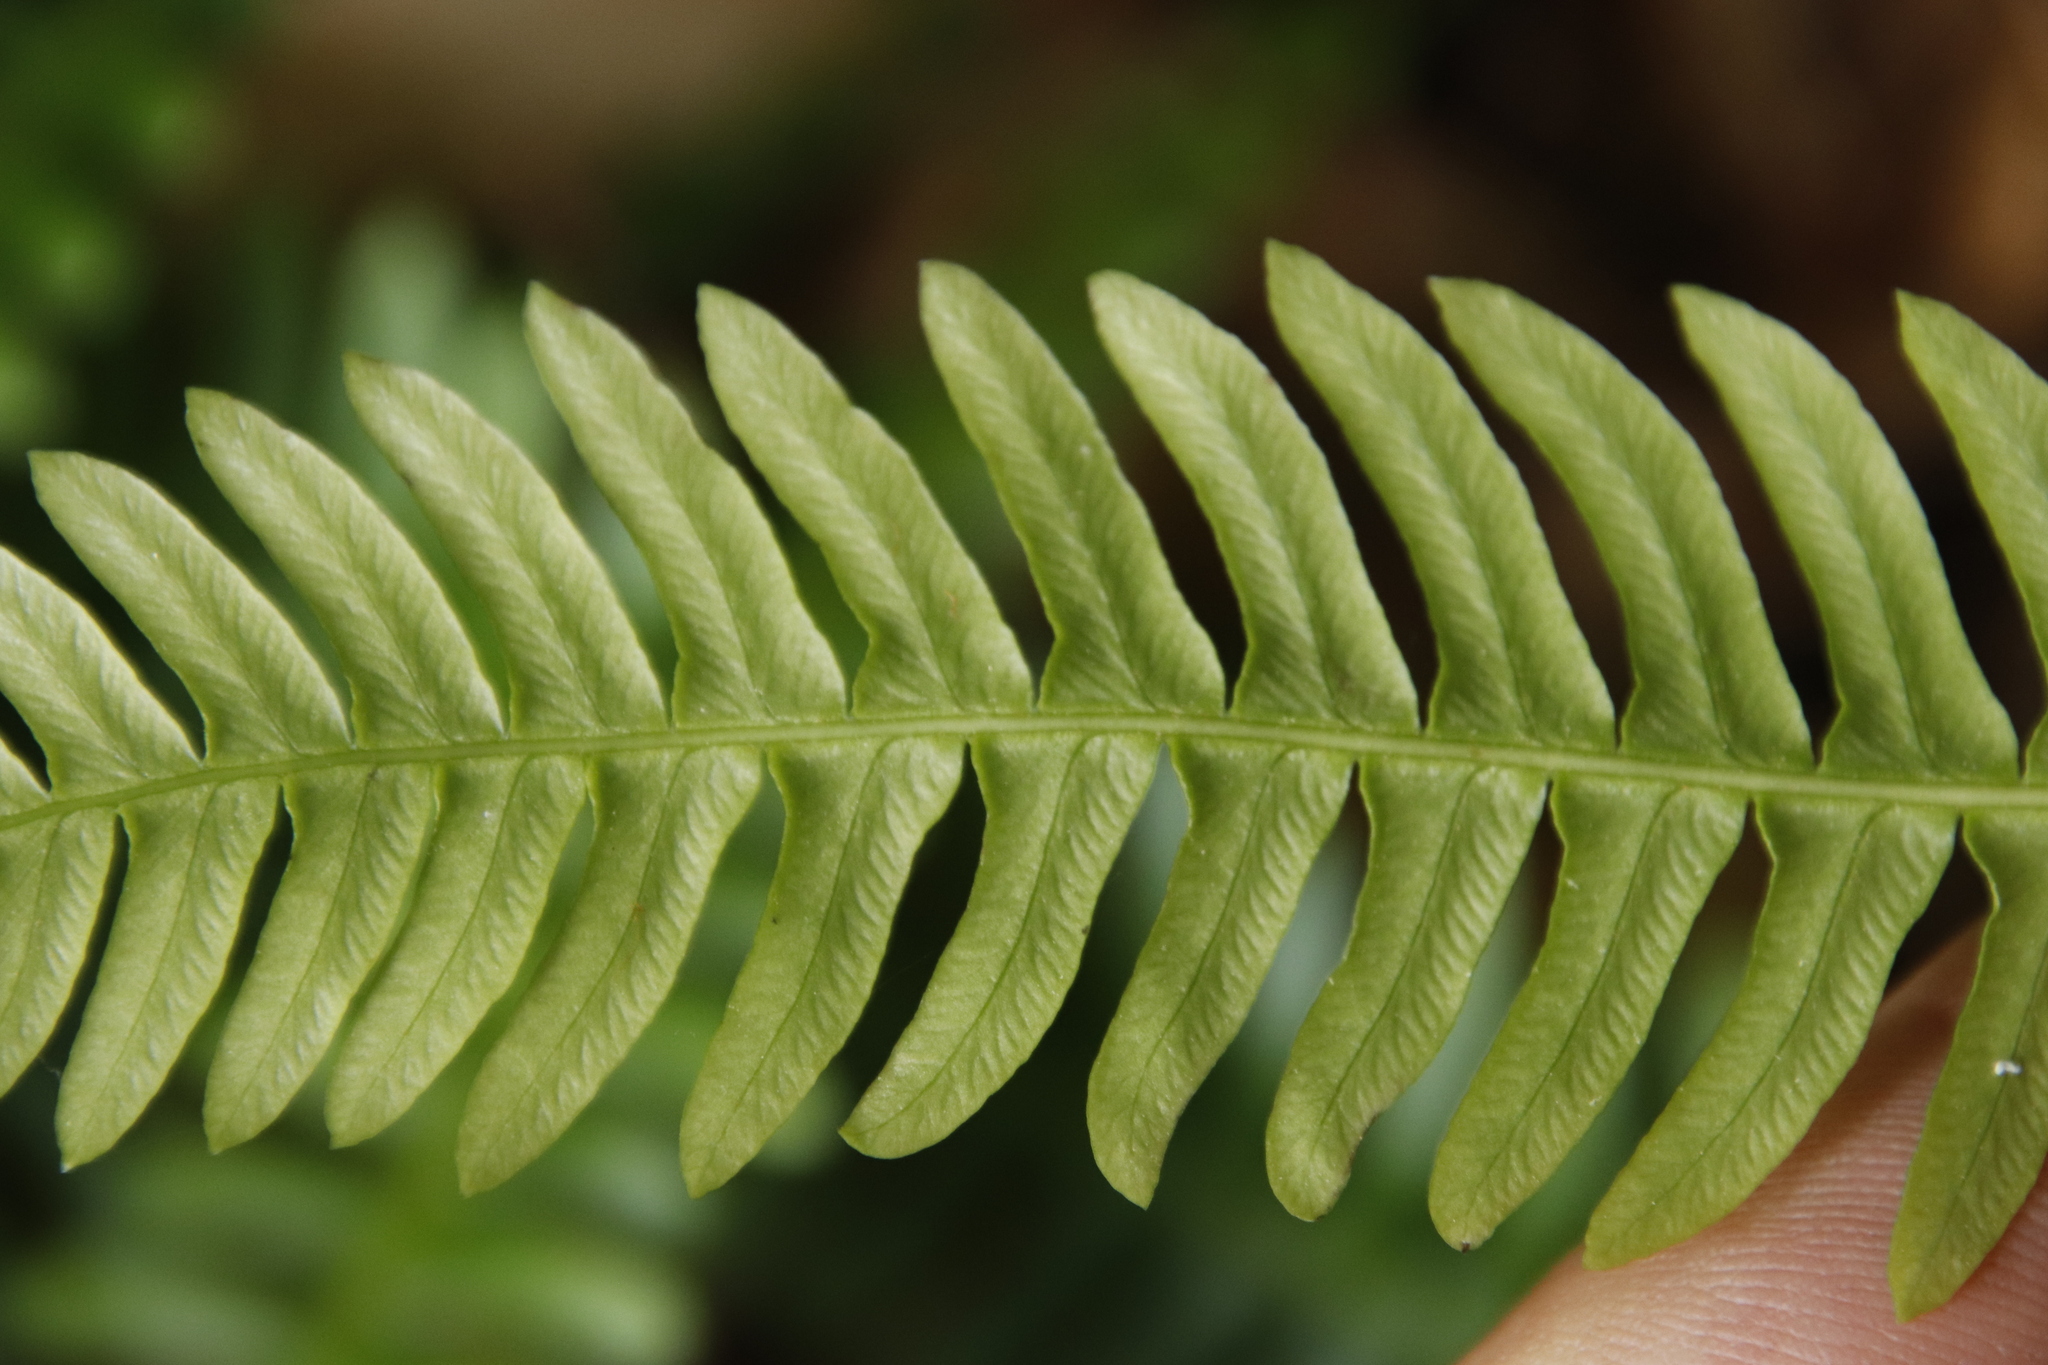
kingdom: Plantae
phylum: Tracheophyta
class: Polypodiopsida
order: Polypodiales
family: Blechnaceae
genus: Struthiopteris
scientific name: Struthiopteris spicant
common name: Deer fern
